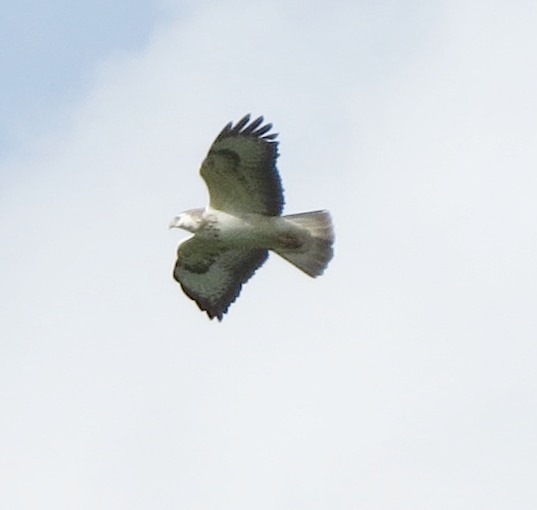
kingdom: Animalia
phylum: Chordata
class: Aves
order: Accipitriformes
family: Accipitridae
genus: Buteo
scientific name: Buteo buteo
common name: Common buzzard
